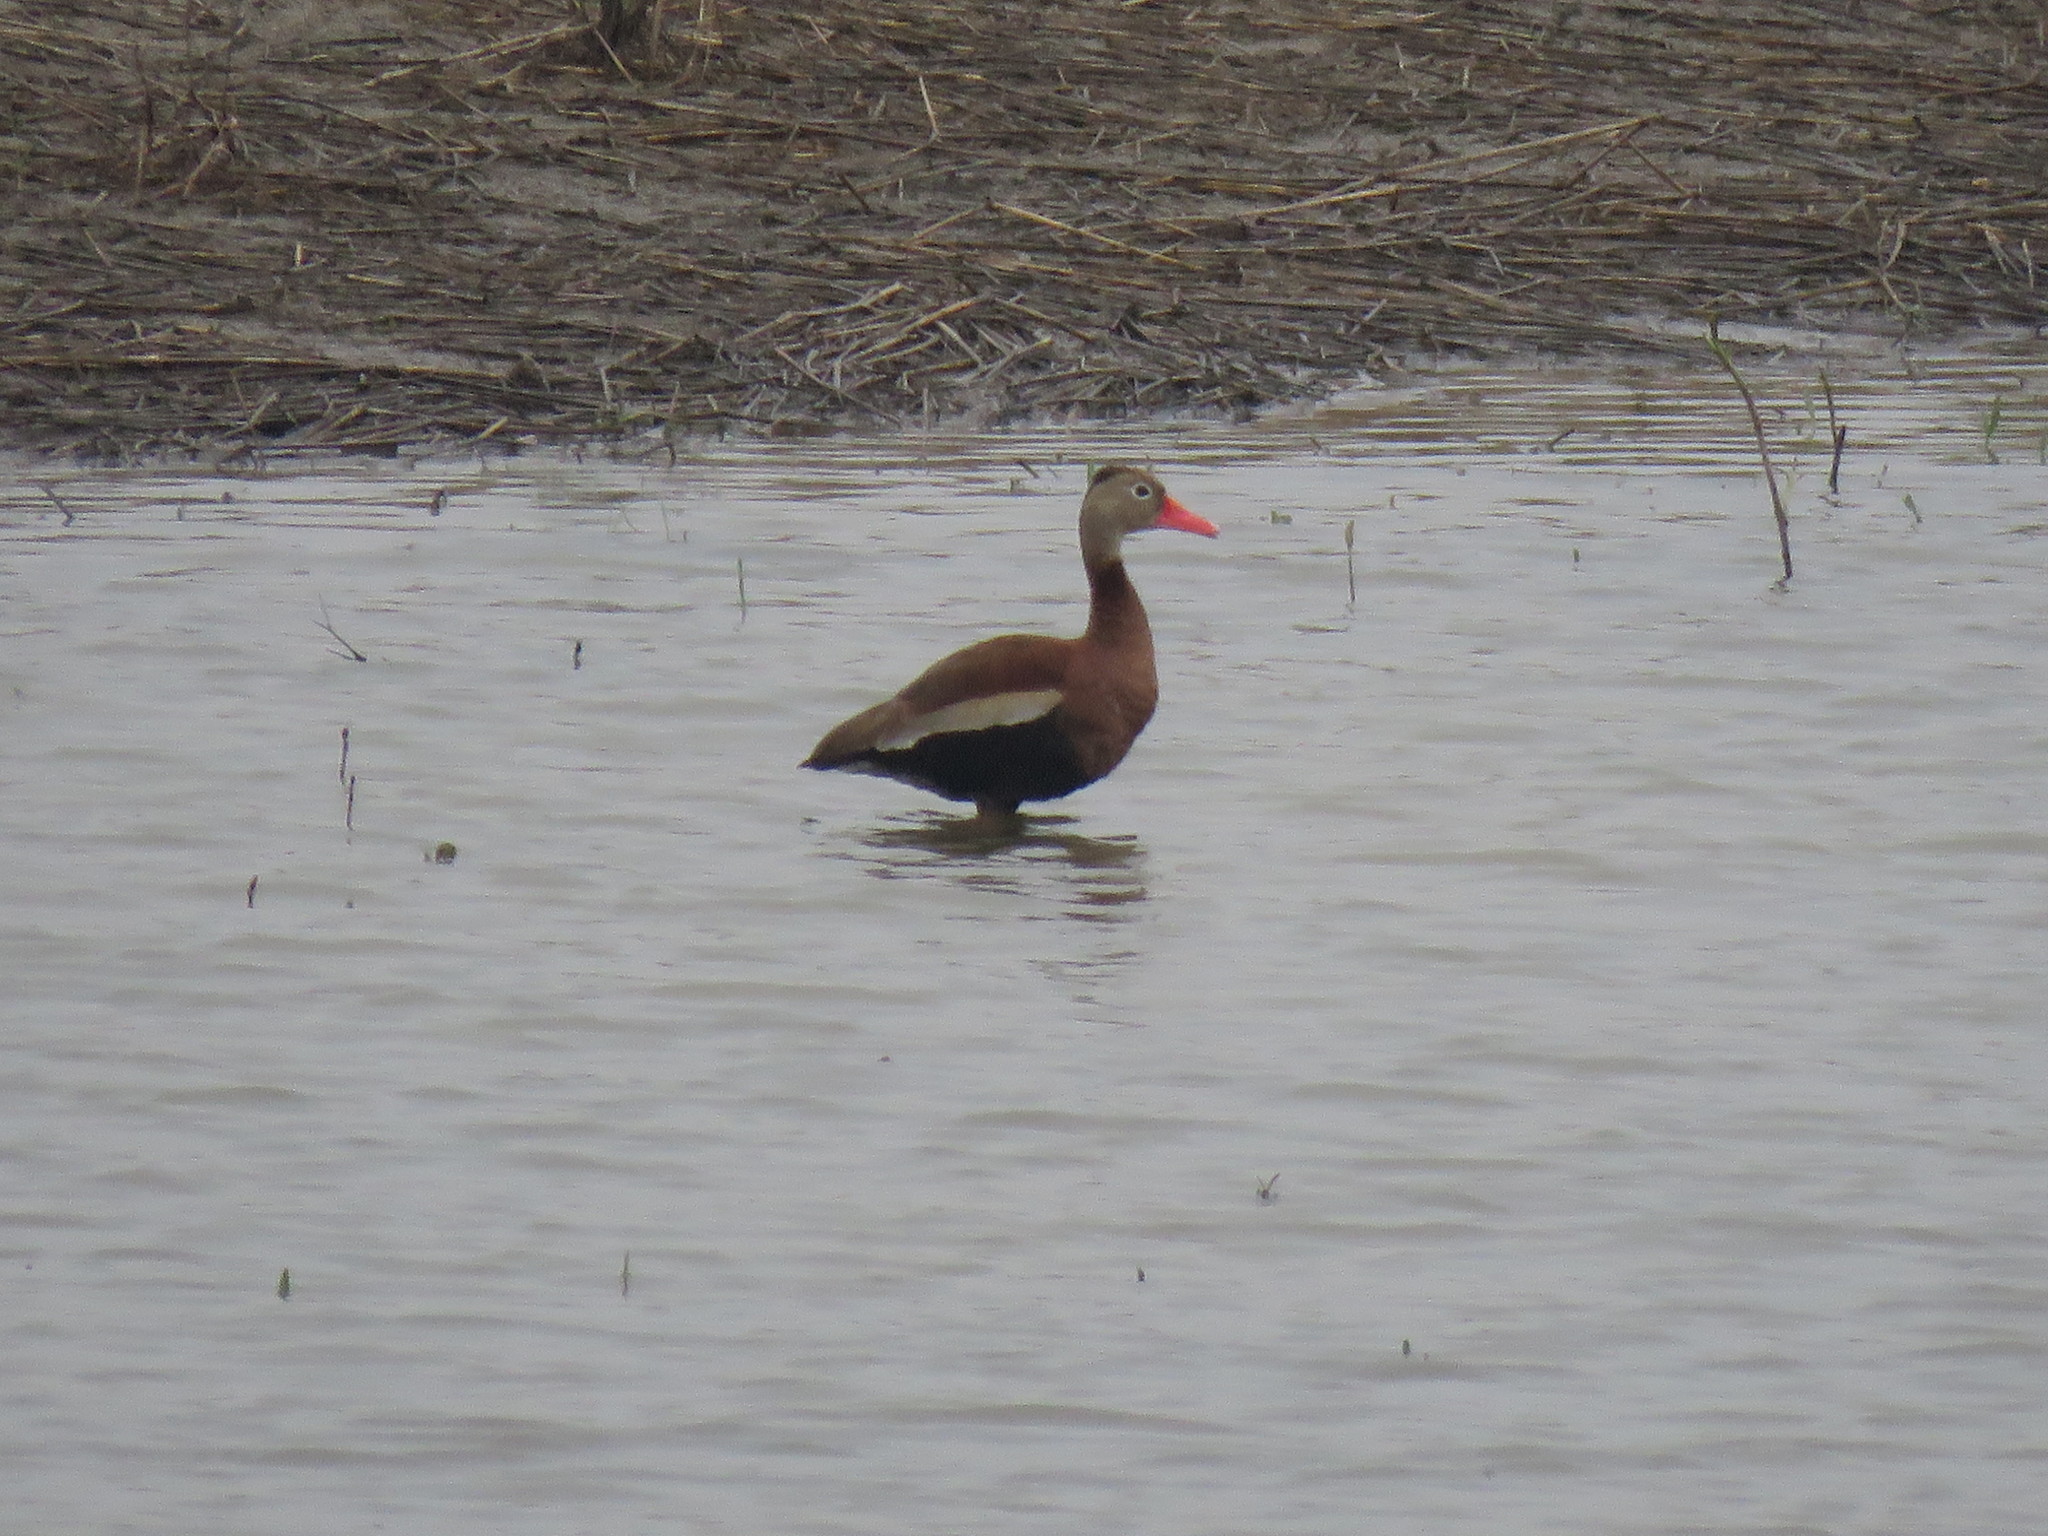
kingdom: Animalia
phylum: Chordata
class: Aves
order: Anseriformes
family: Anatidae
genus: Dendrocygna
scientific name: Dendrocygna autumnalis
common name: Black-bellied whistling duck
